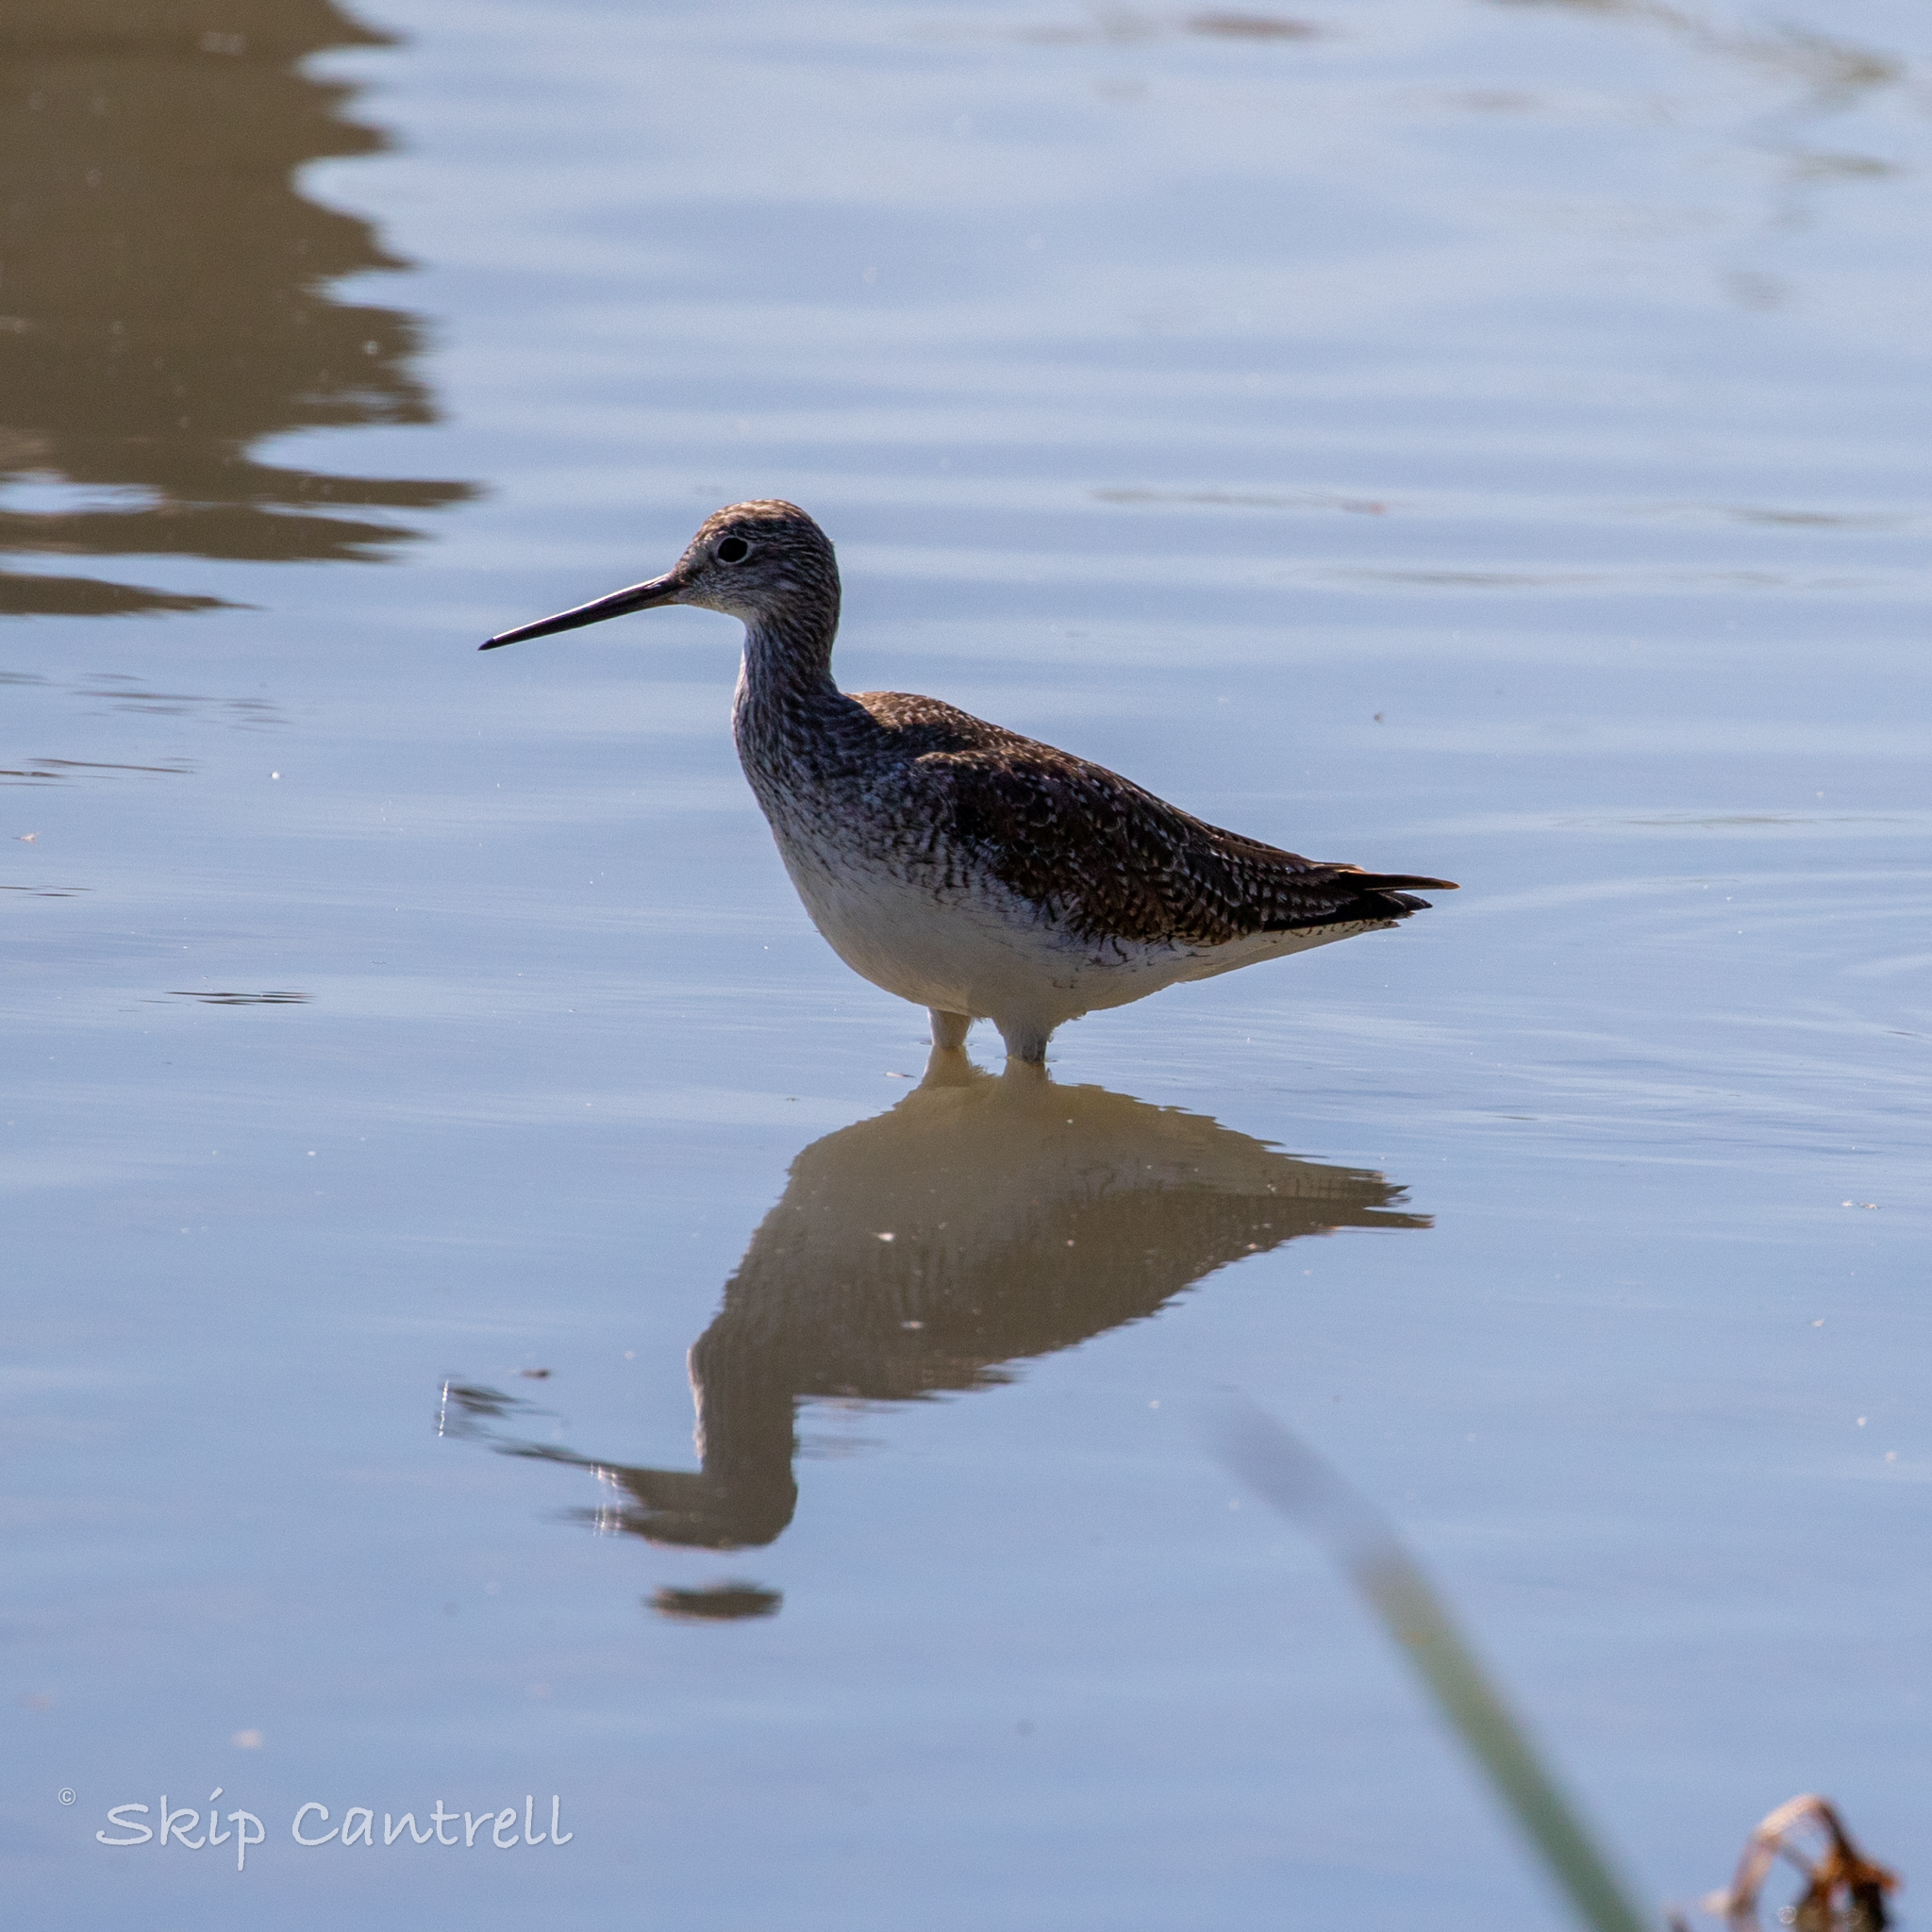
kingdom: Animalia
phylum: Chordata
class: Aves
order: Charadriiformes
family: Scolopacidae
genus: Tringa
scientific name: Tringa melanoleuca
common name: Greater yellowlegs
